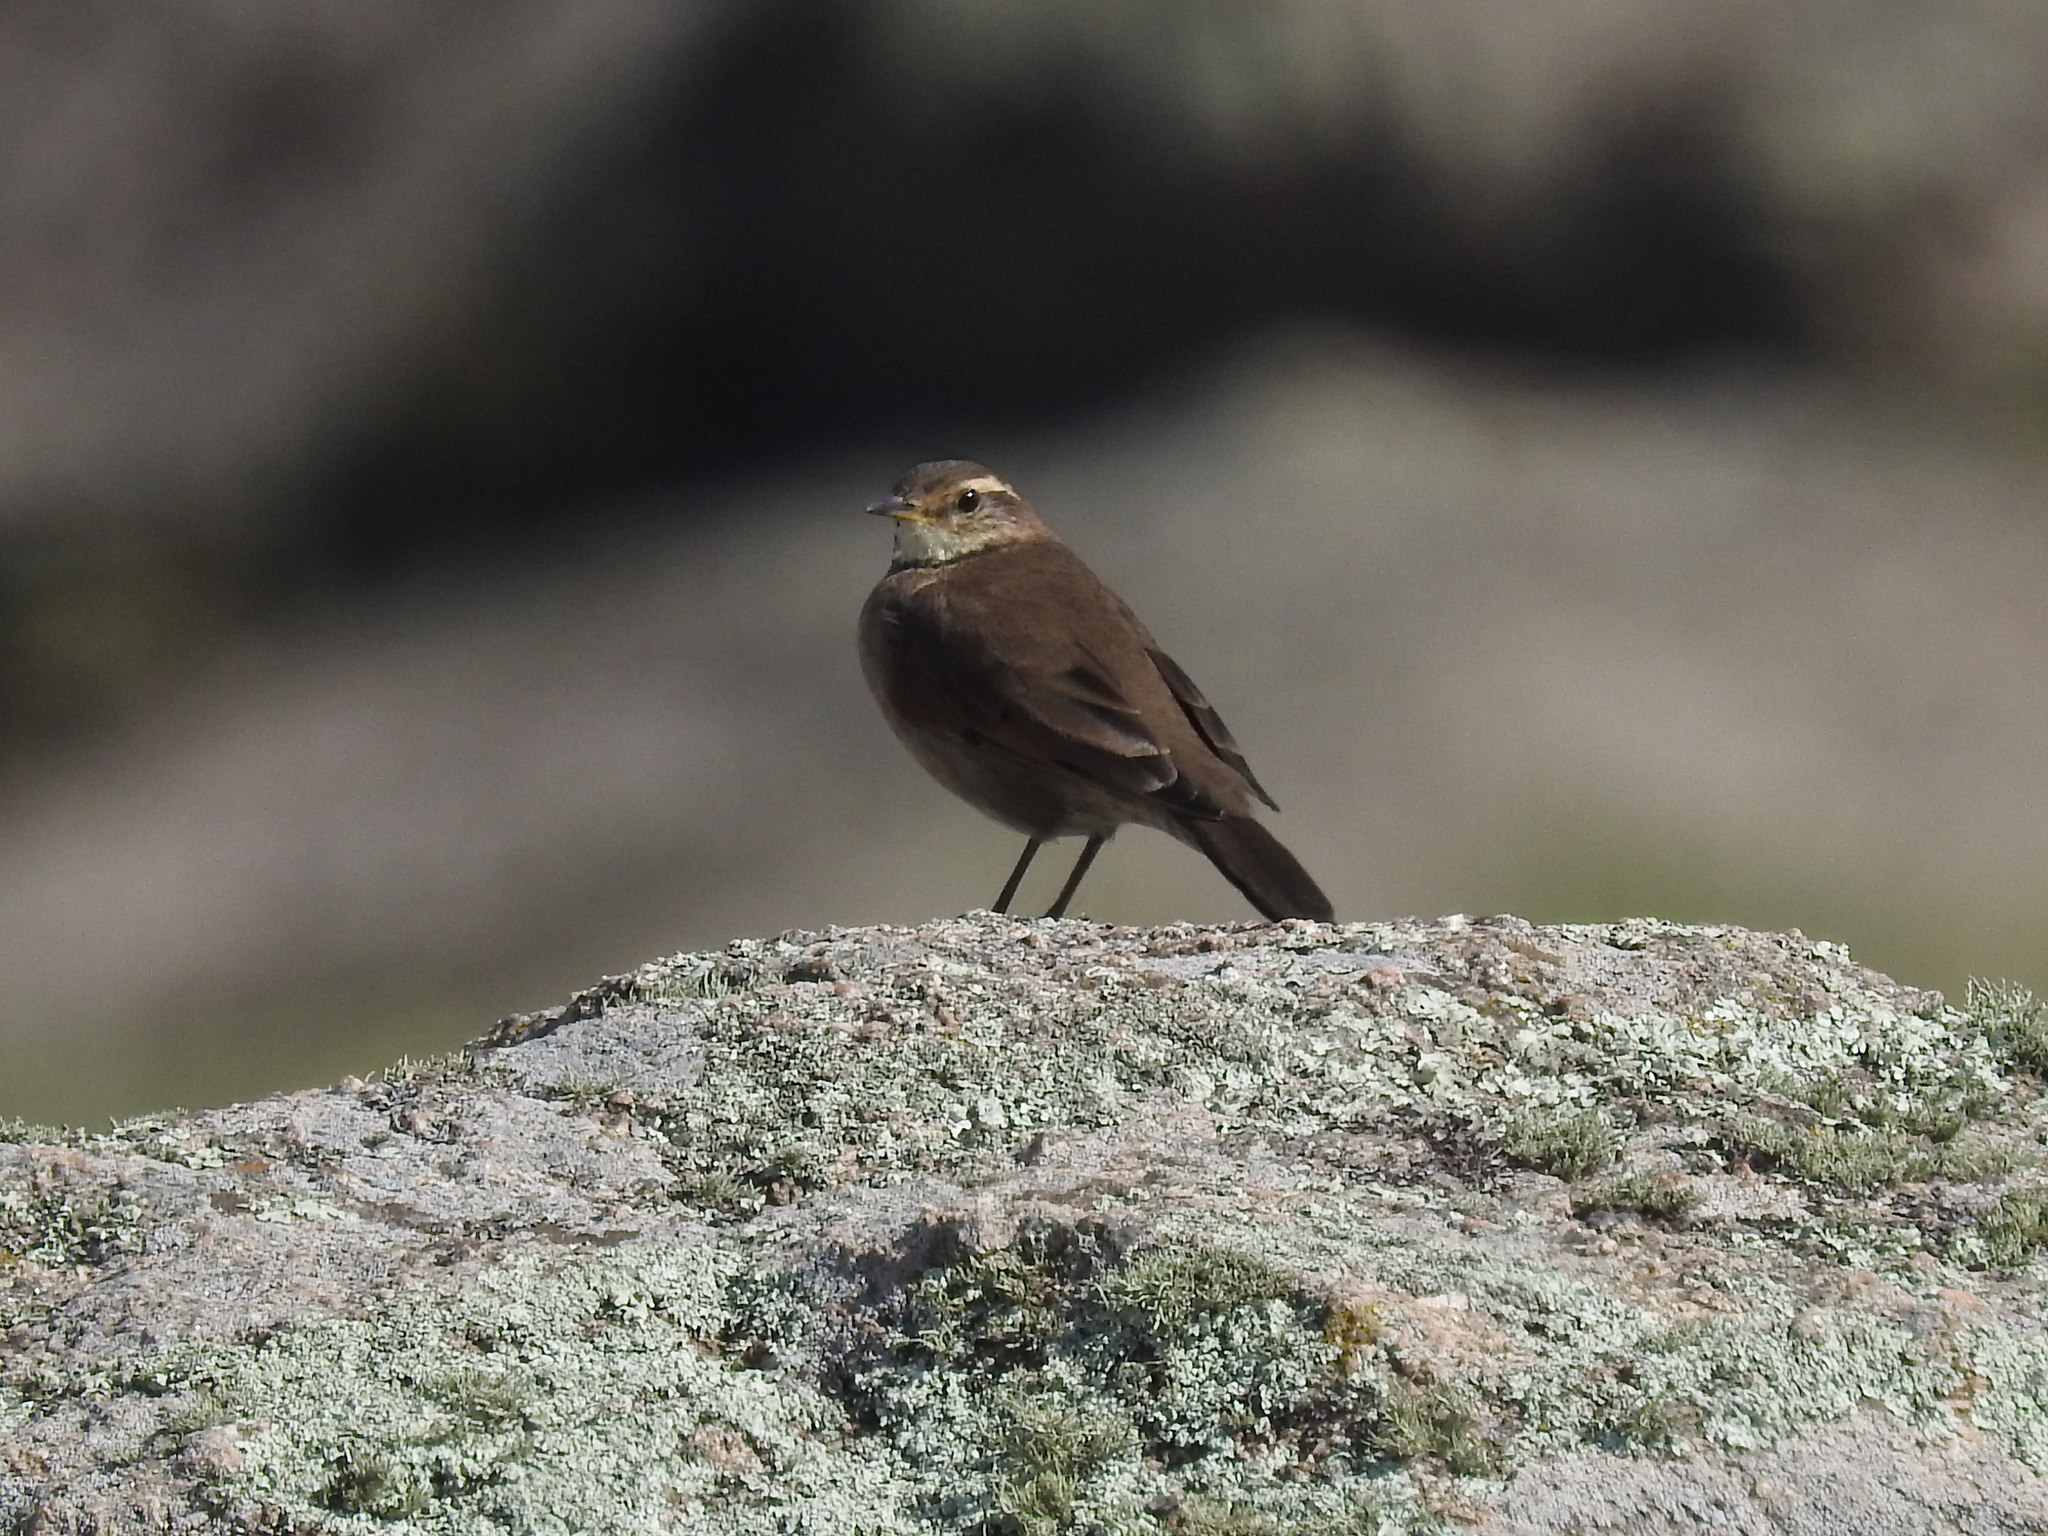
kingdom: Animalia
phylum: Chordata
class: Aves
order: Passeriformes
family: Furnariidae
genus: Cinclodes
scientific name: Cinclodes comechingonus
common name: Cordoba cinclodes
